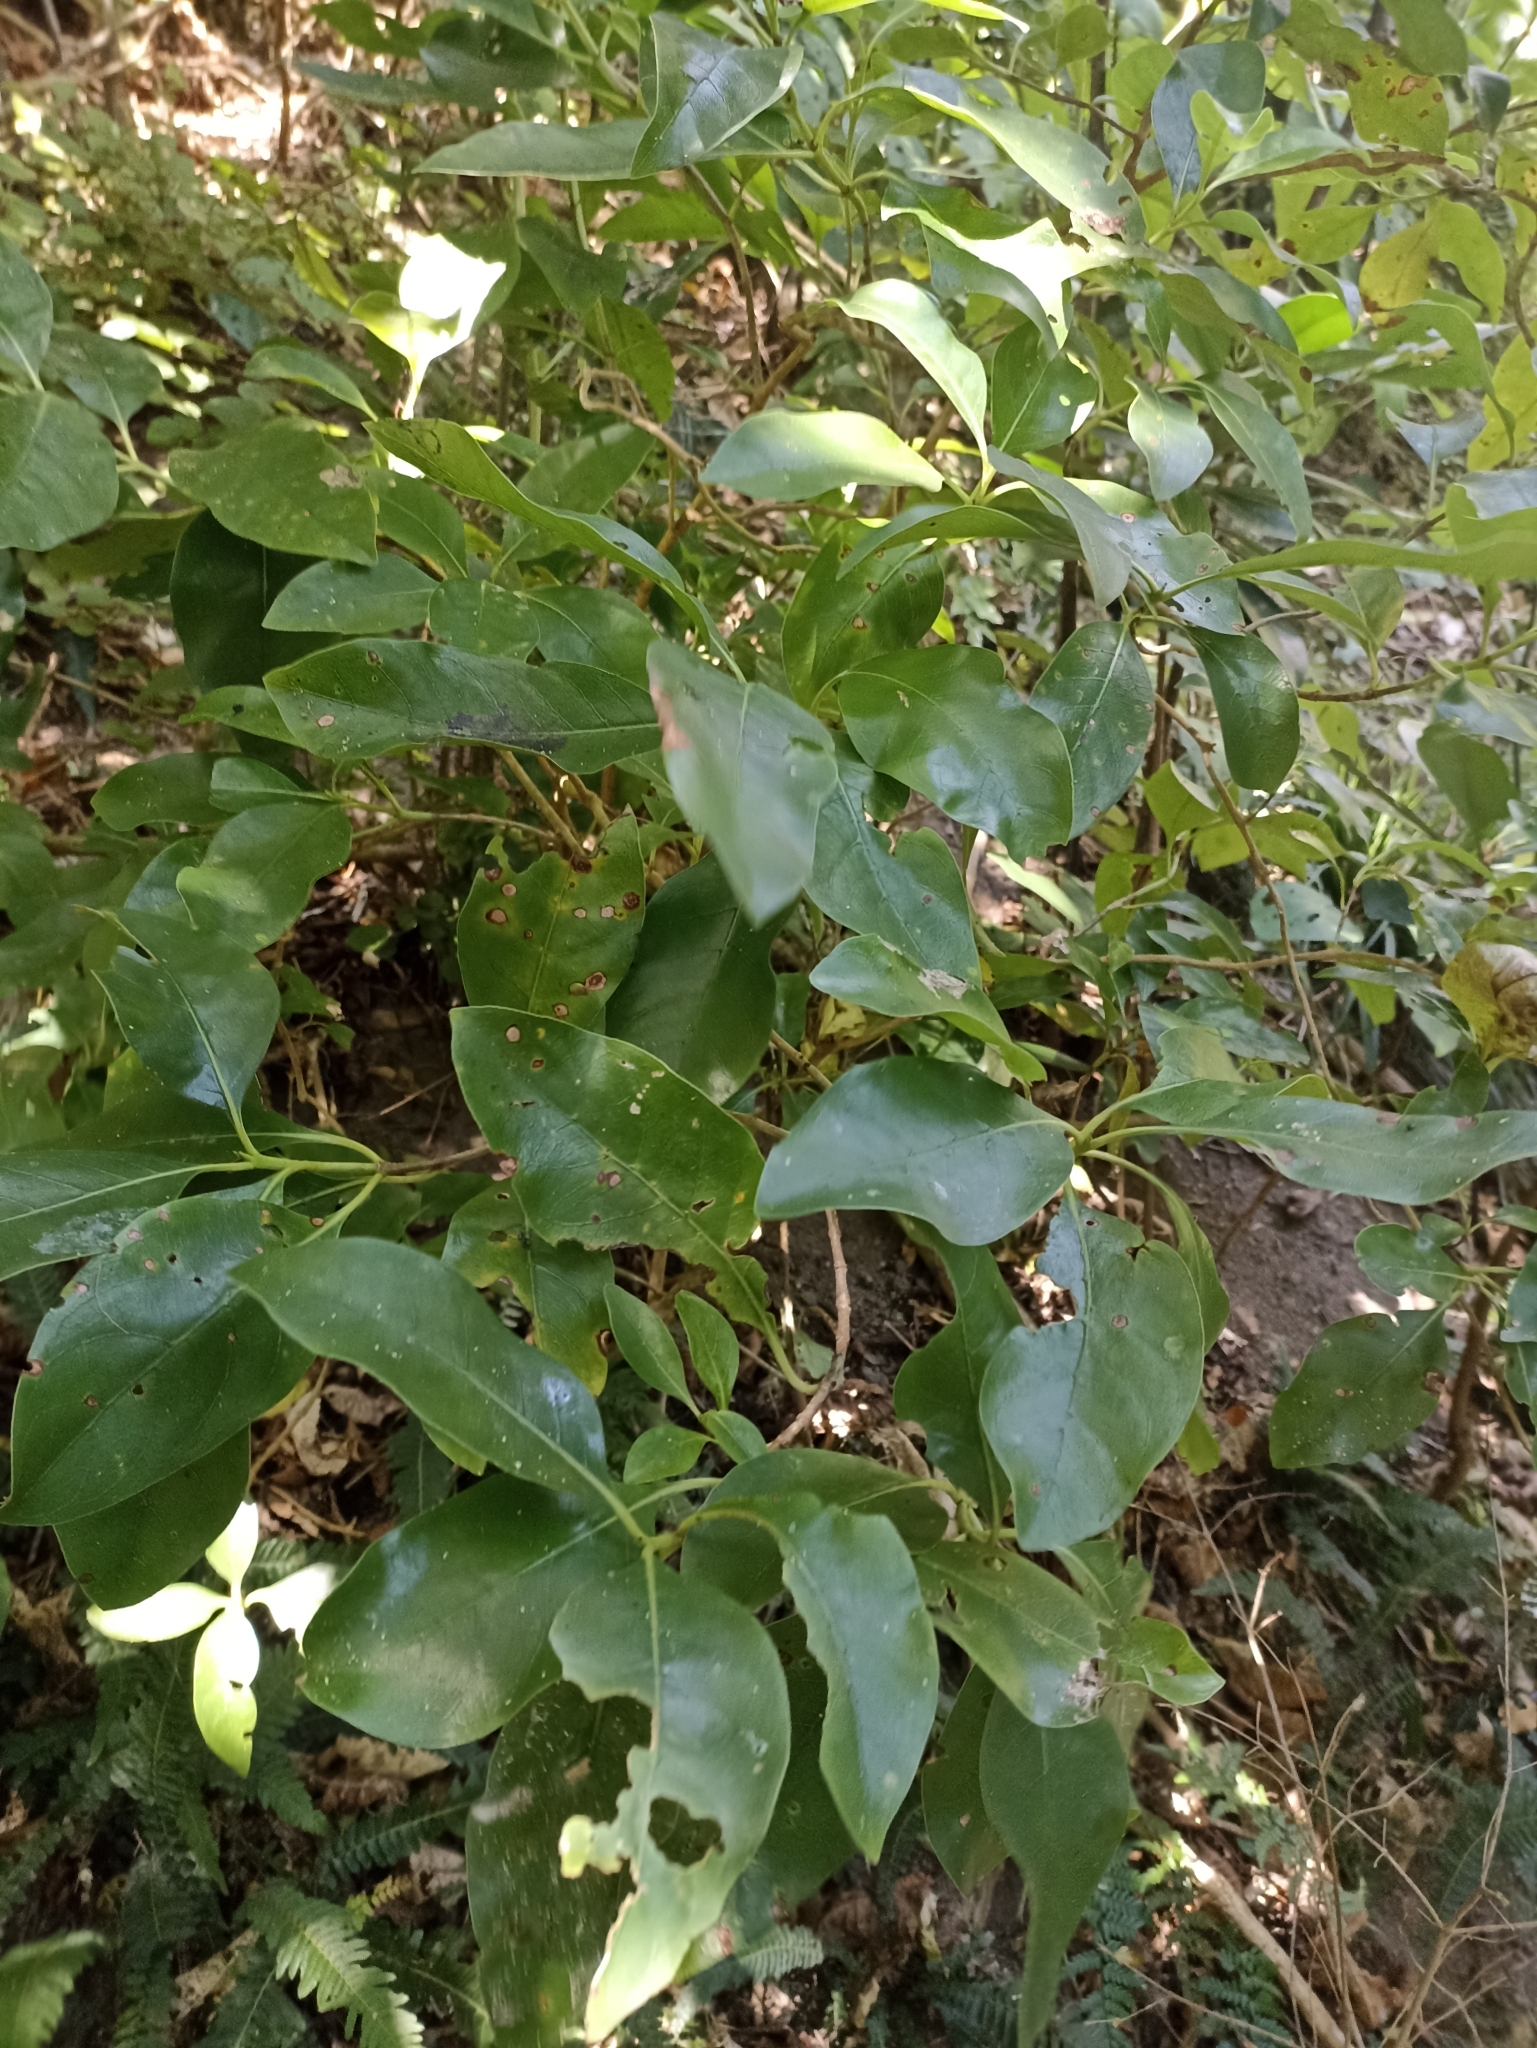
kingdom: Plantae
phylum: Tracheophyta
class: Magnoliopsida
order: Gentianales
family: Rubiaceae
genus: Coprosma
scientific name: Coprosma macrocarpa
